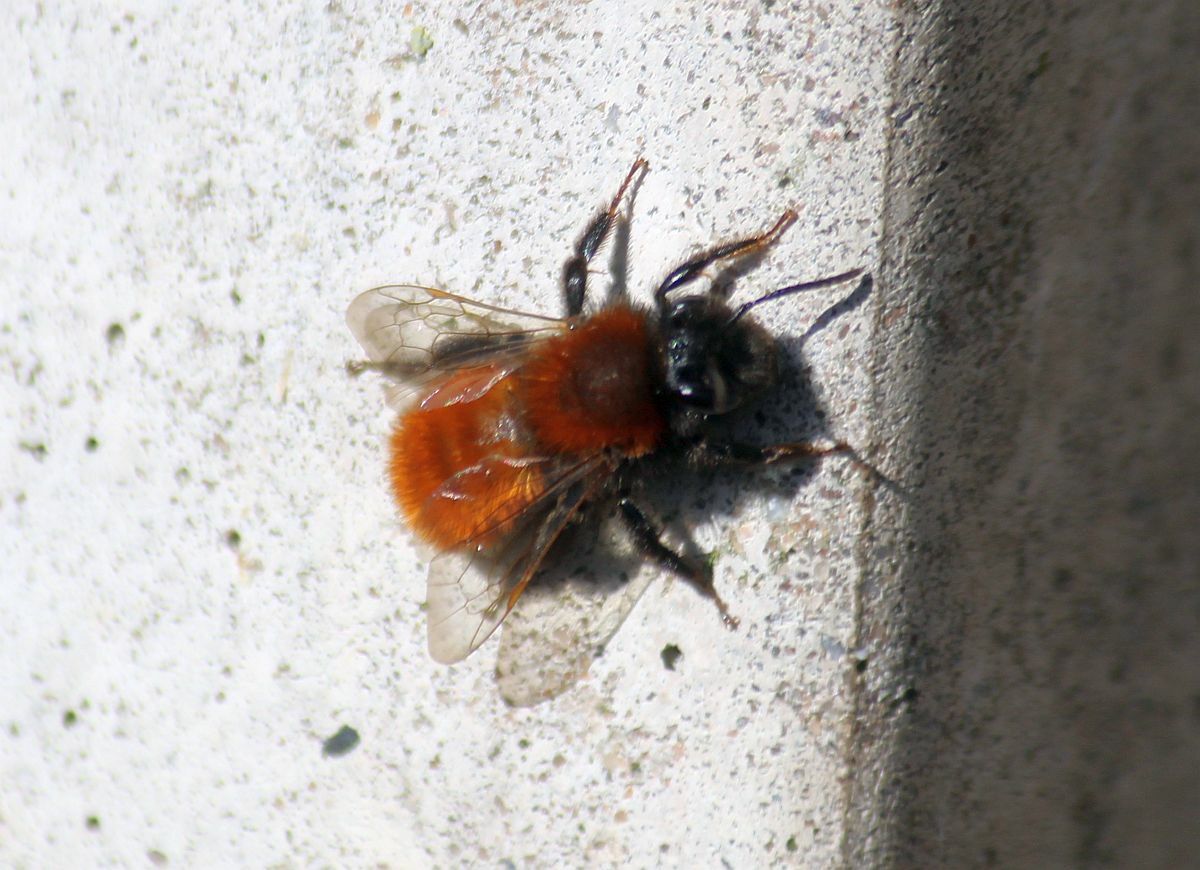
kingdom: Animalia
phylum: Arthropoda
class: Insecta
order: Hymenoptera
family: Andrenidae
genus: Andrena
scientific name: Andrena fulva
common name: Tawny mining bee
